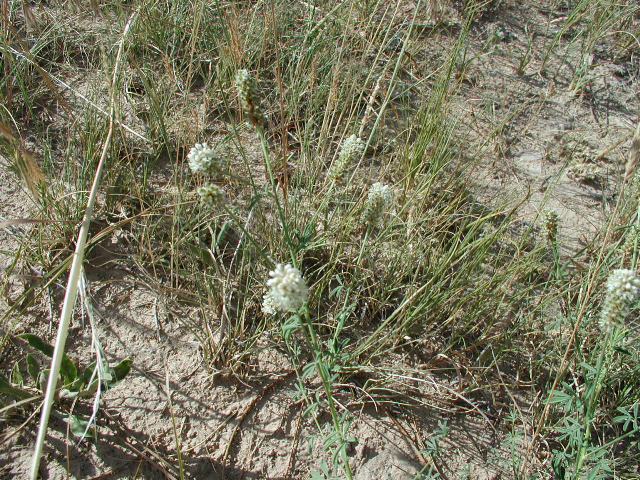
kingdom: Plantae
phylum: Tracheophyta
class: Magnoliopsida
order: Fabales
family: Fabaceae
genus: Dalea
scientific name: Dalea candida
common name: White prairie-clover
